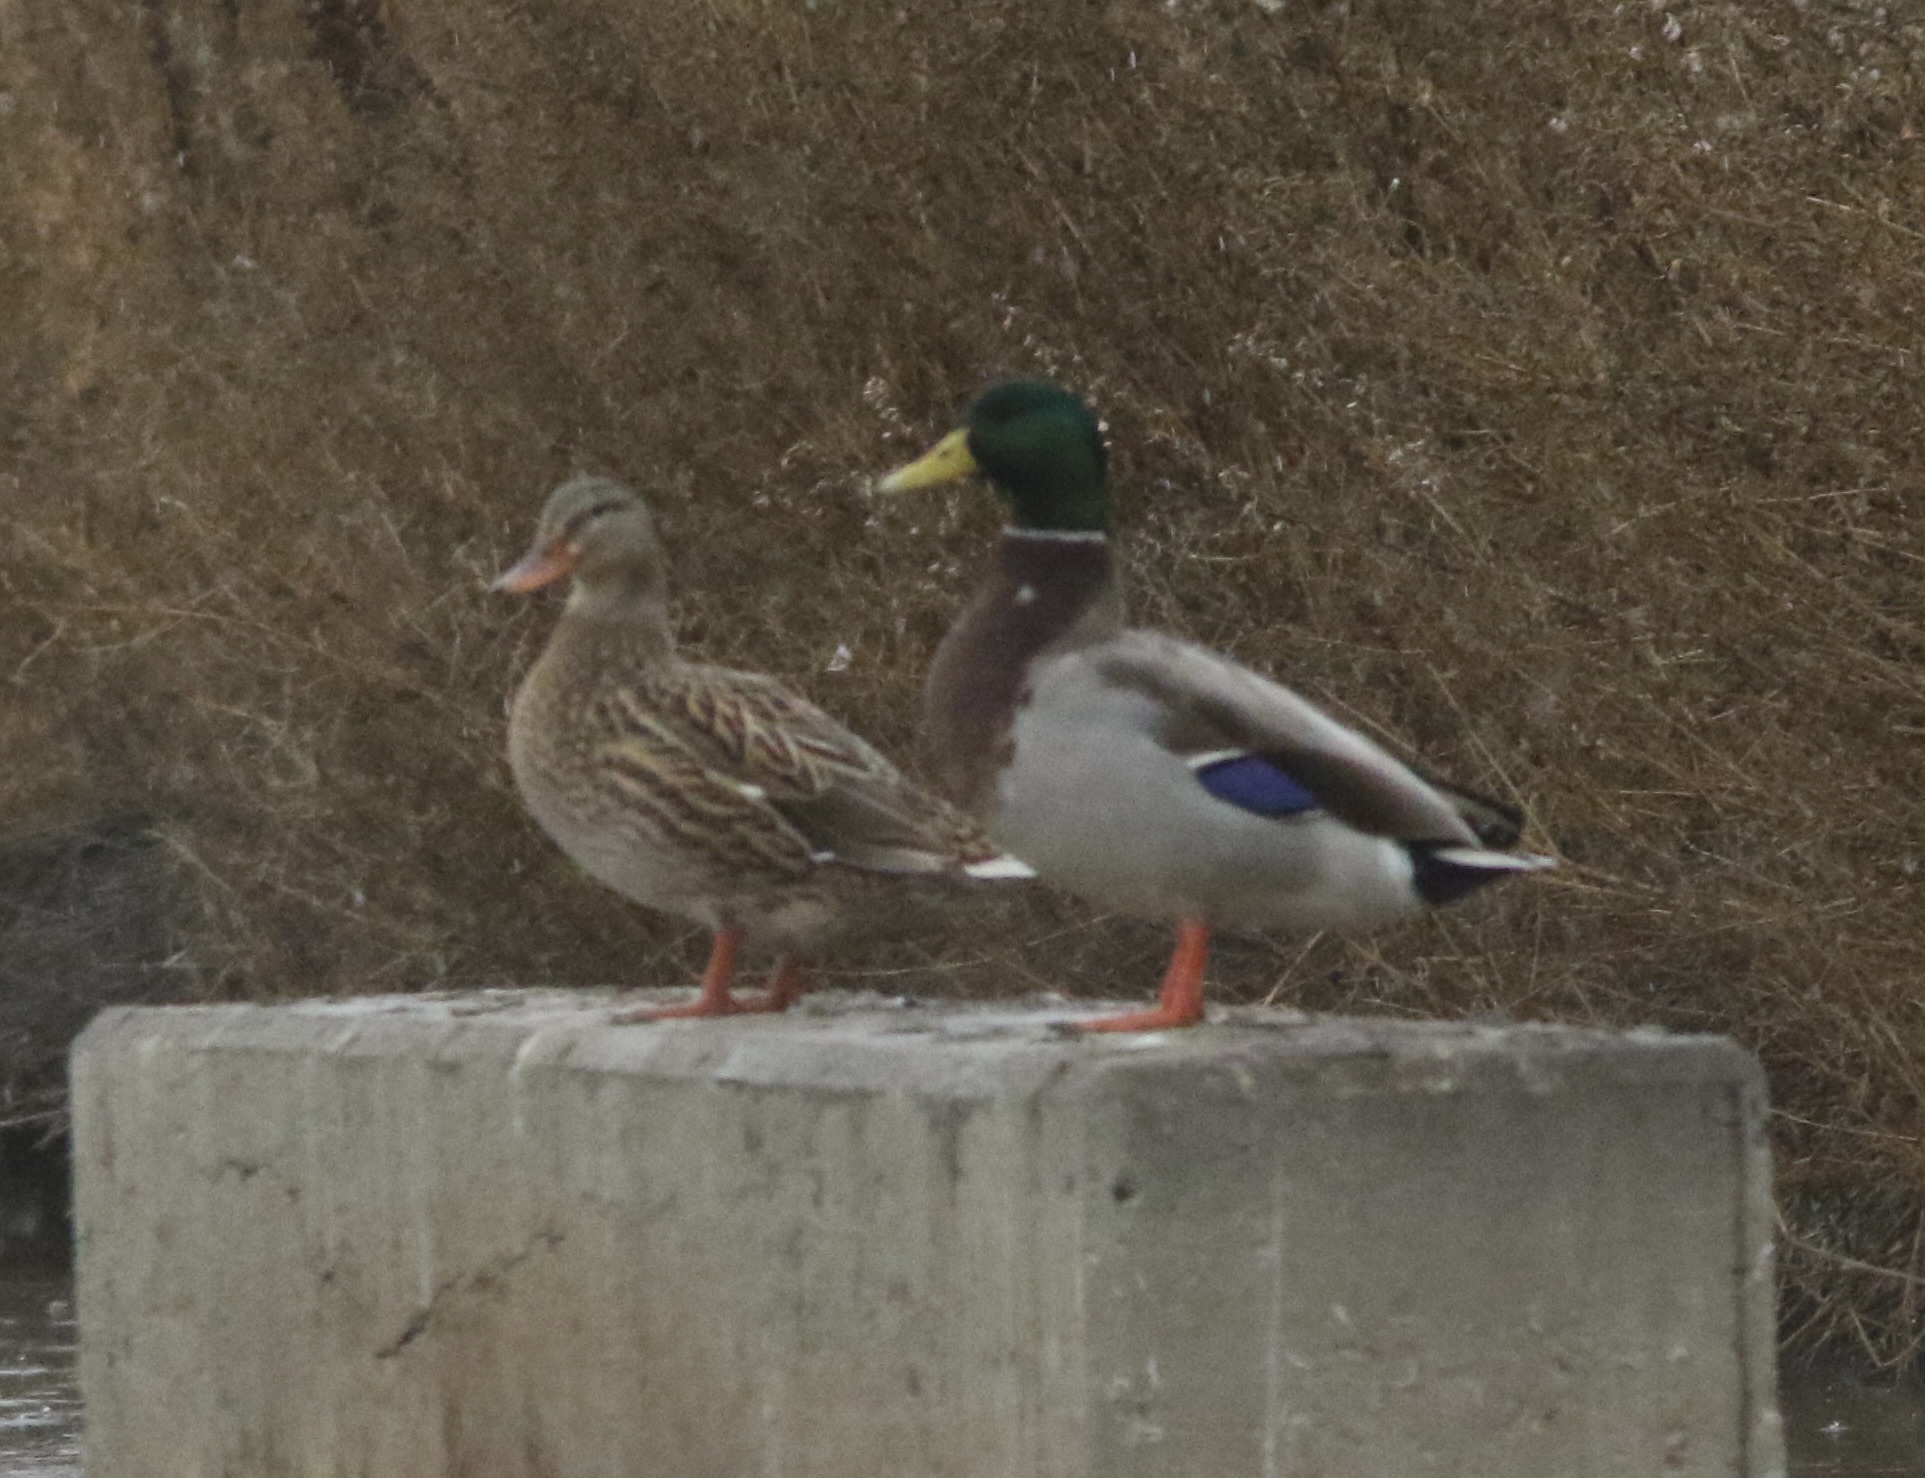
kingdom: Animalia
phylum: Chordata
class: Aves
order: Anseriformes
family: Anatidae
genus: Anas
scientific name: Anas platyrhynchos
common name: Mallard
